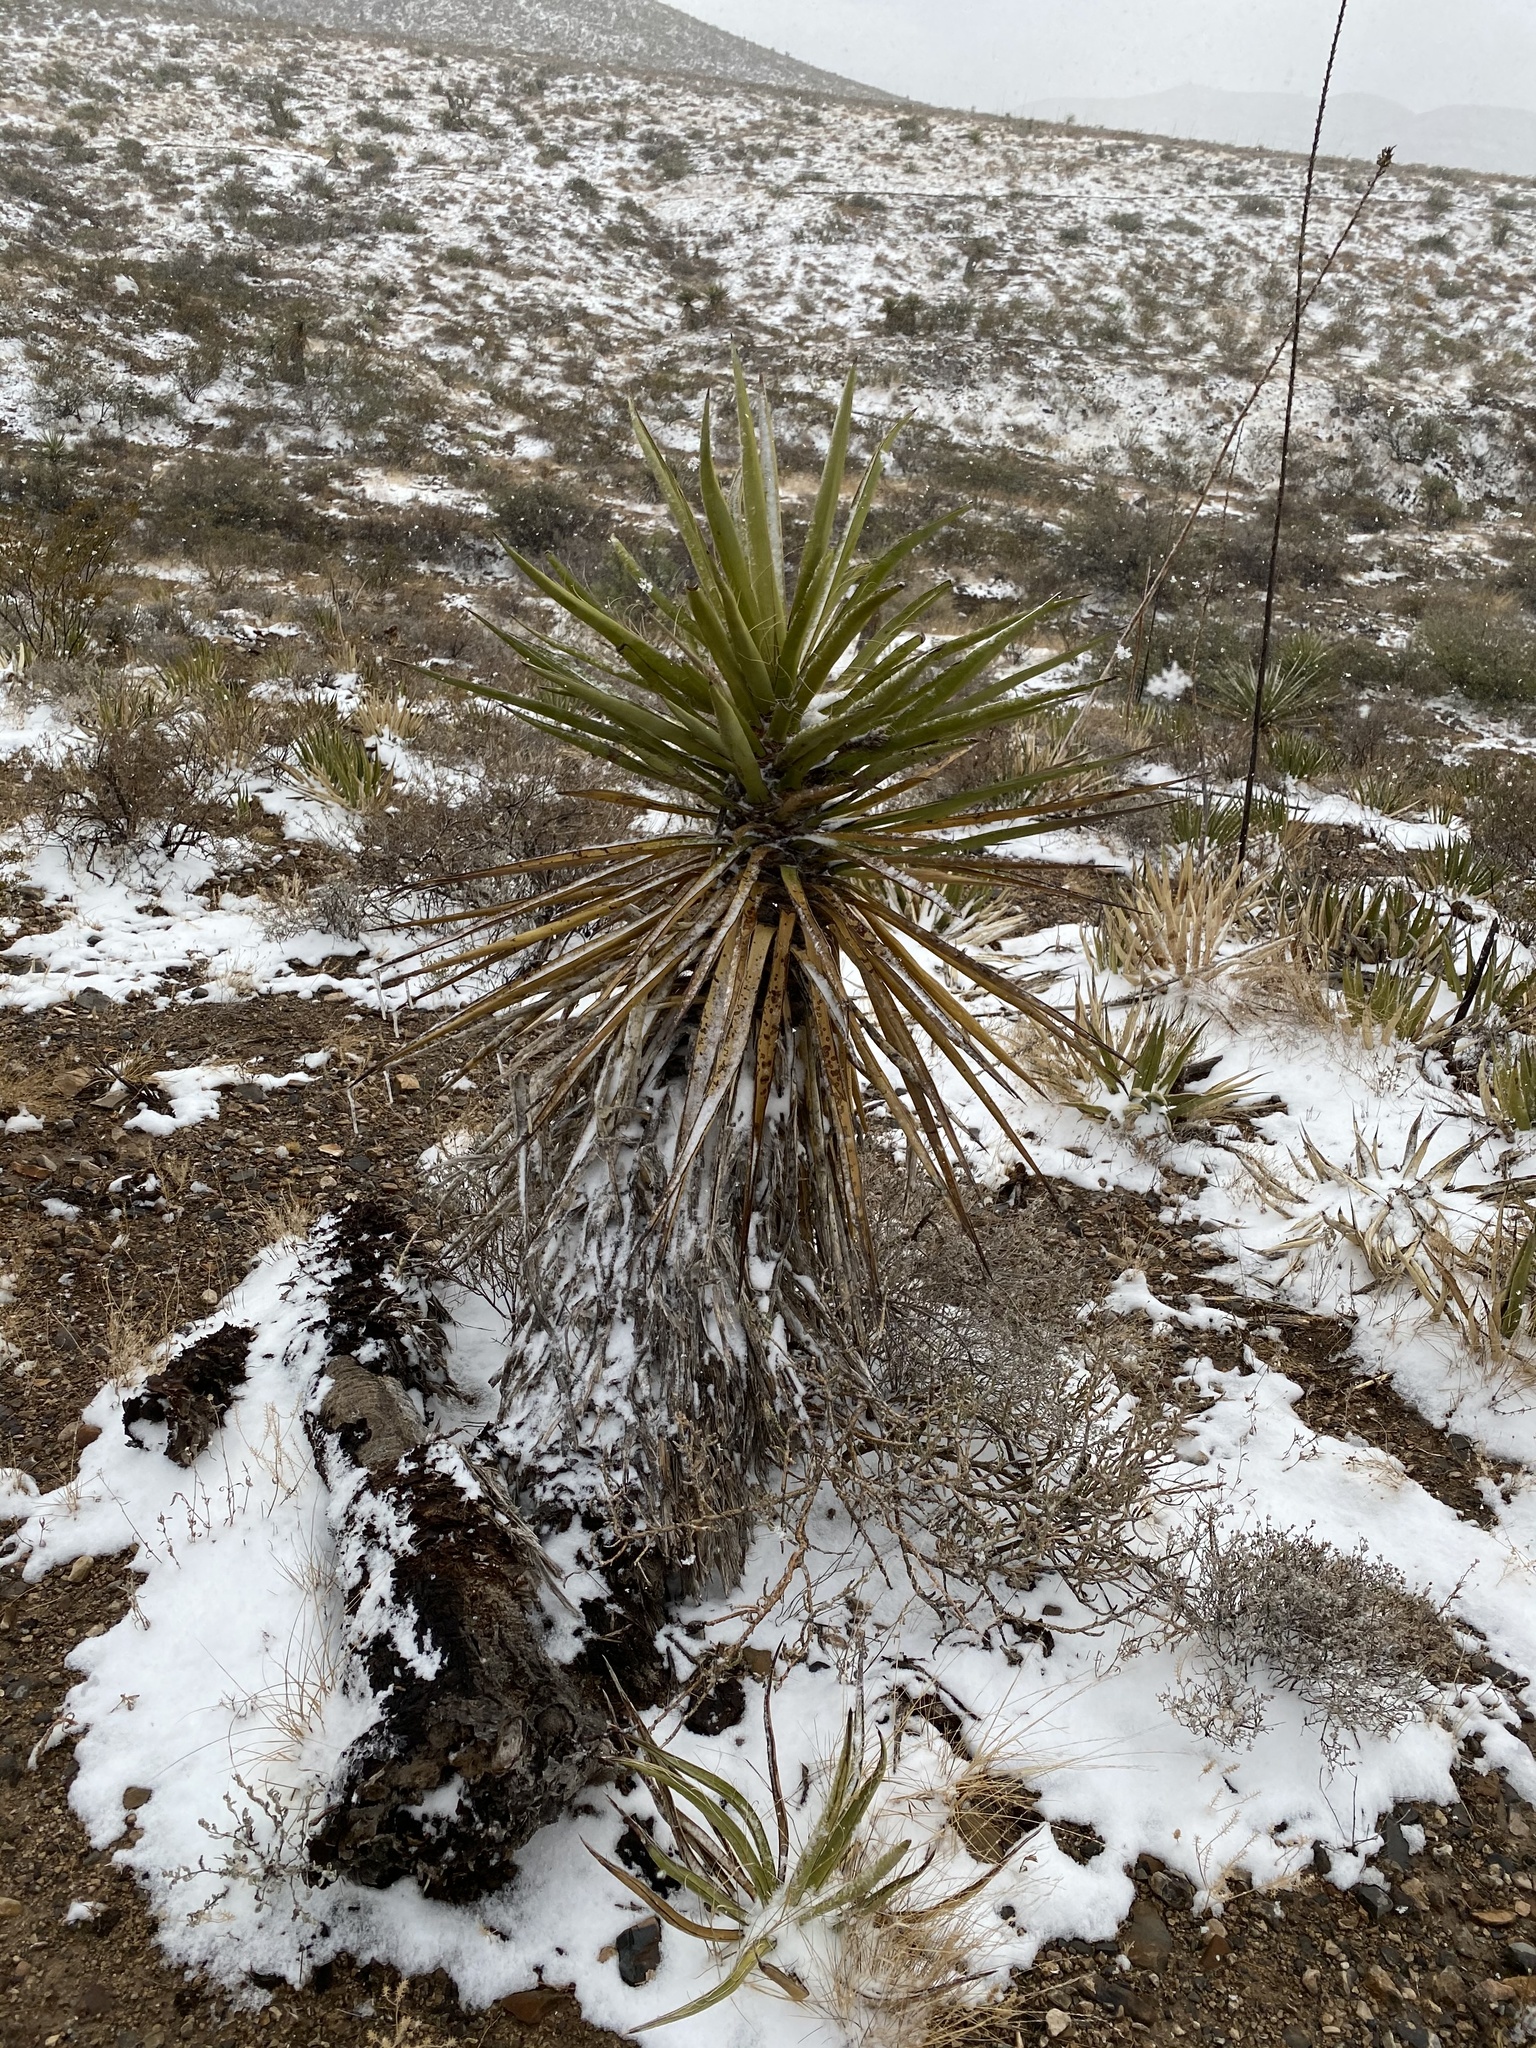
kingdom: Plantae
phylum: Tracheophyta
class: Liliopsida
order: Asparagales
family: Asparagaceae
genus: Yucca
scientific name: Yucca treculiana
